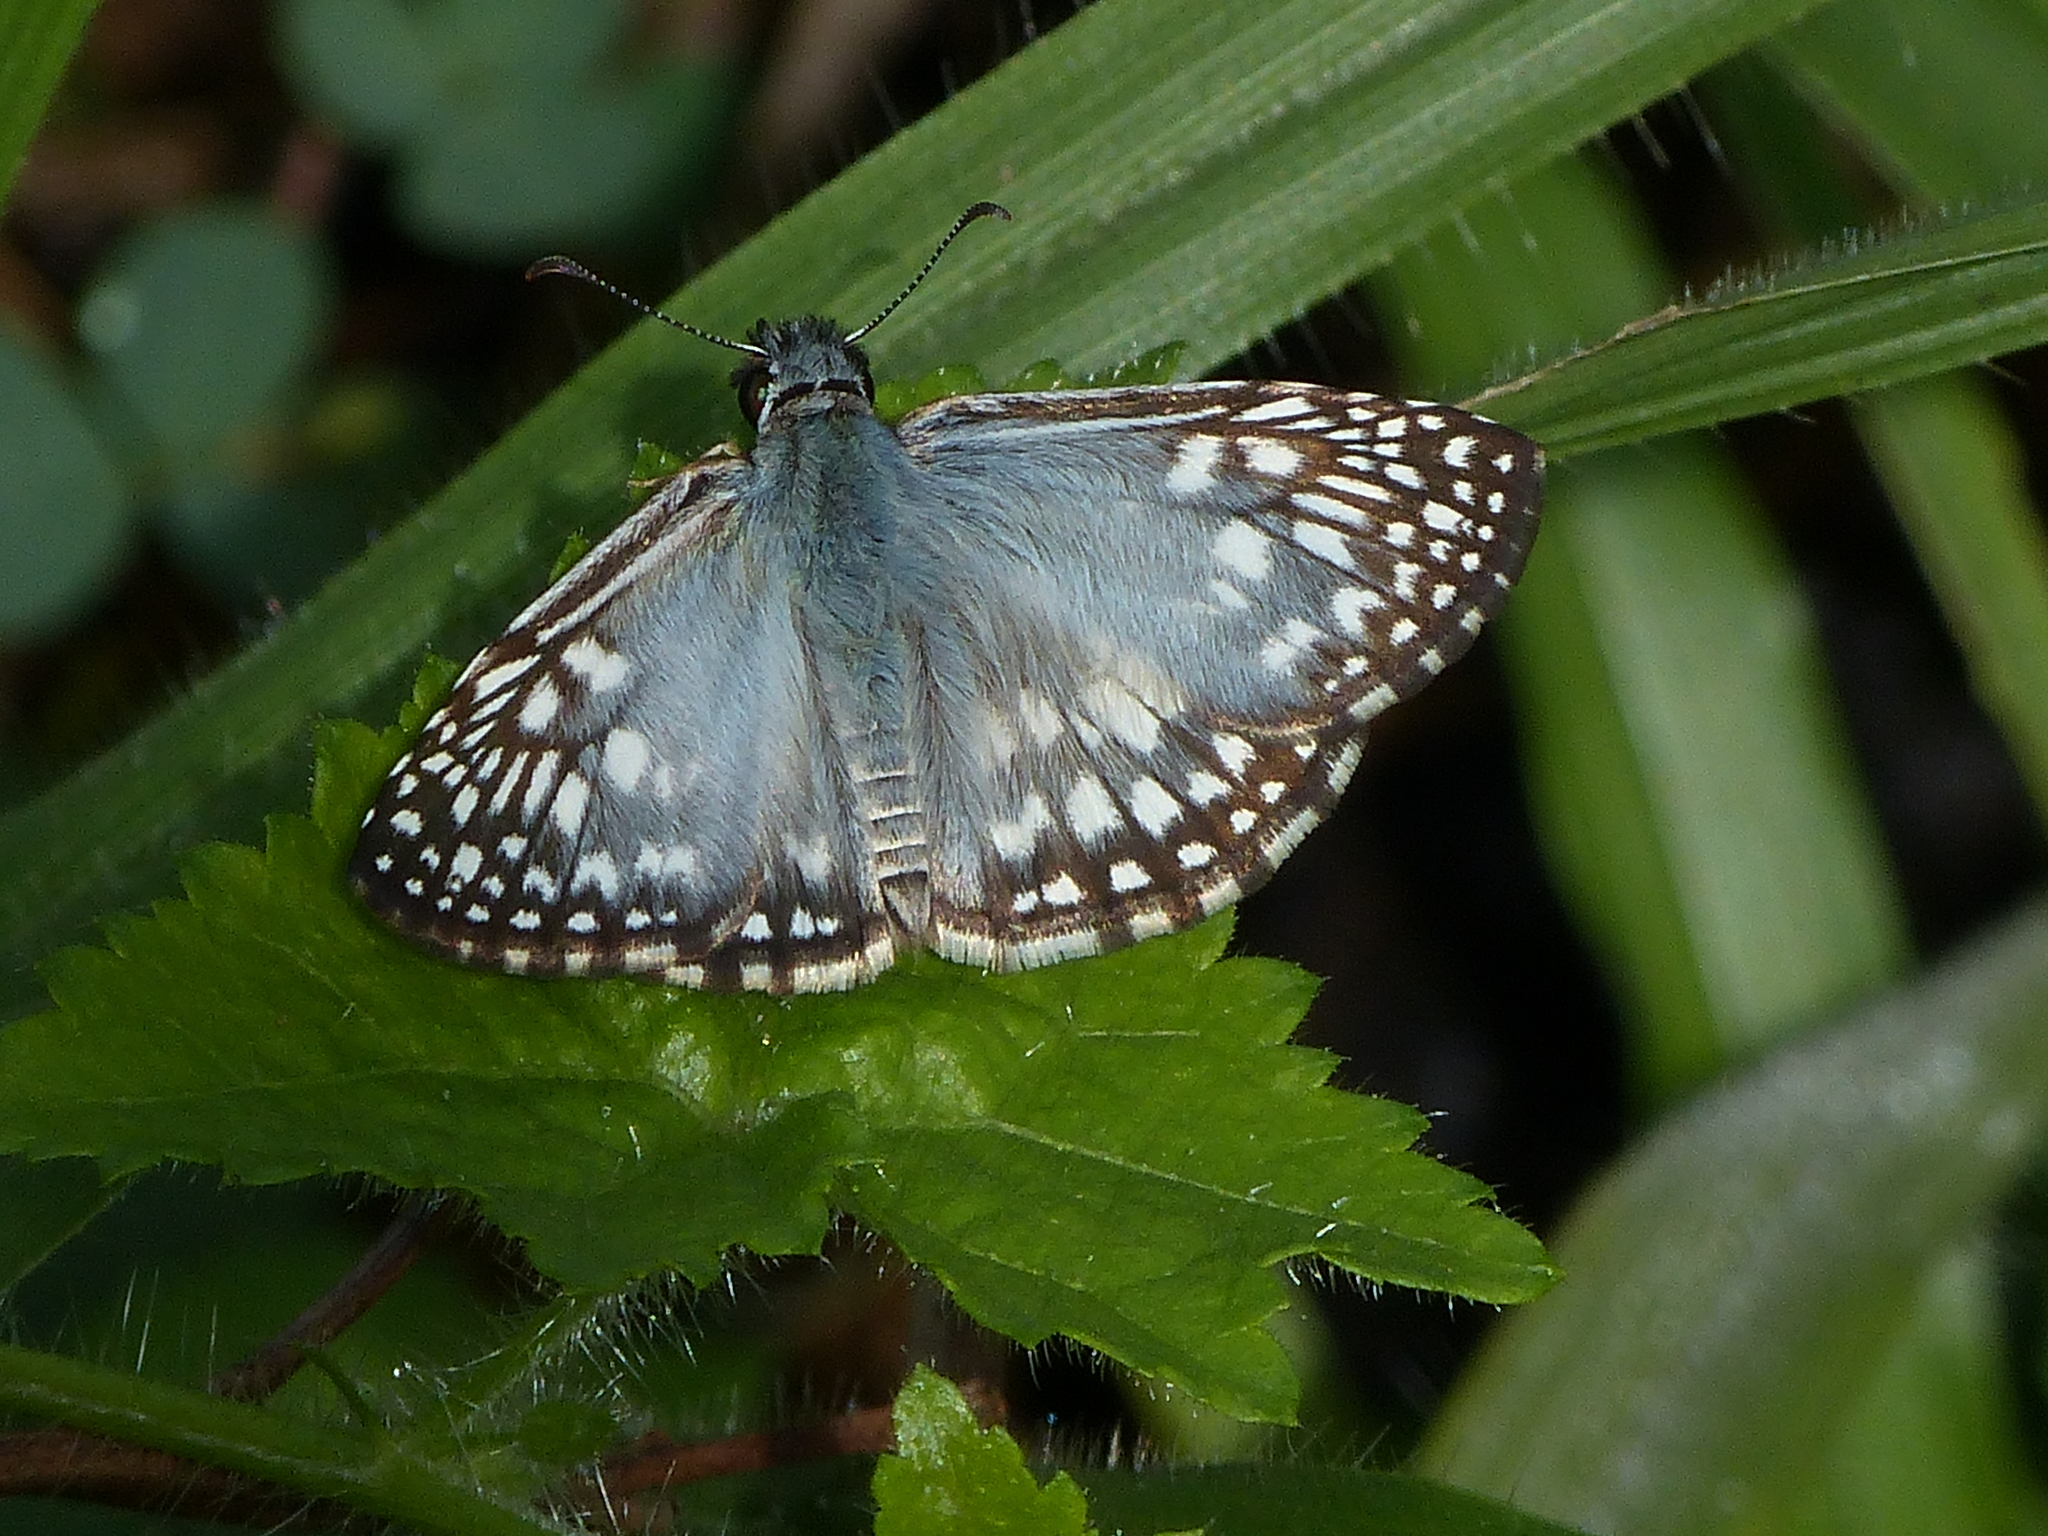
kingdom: Animalia
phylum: Arthropoda
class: Insecta
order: Lepidoptera
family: Hesperiidae
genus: Pyrgus
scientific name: Pyrgus oileus
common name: Tropical checkered-skipper
